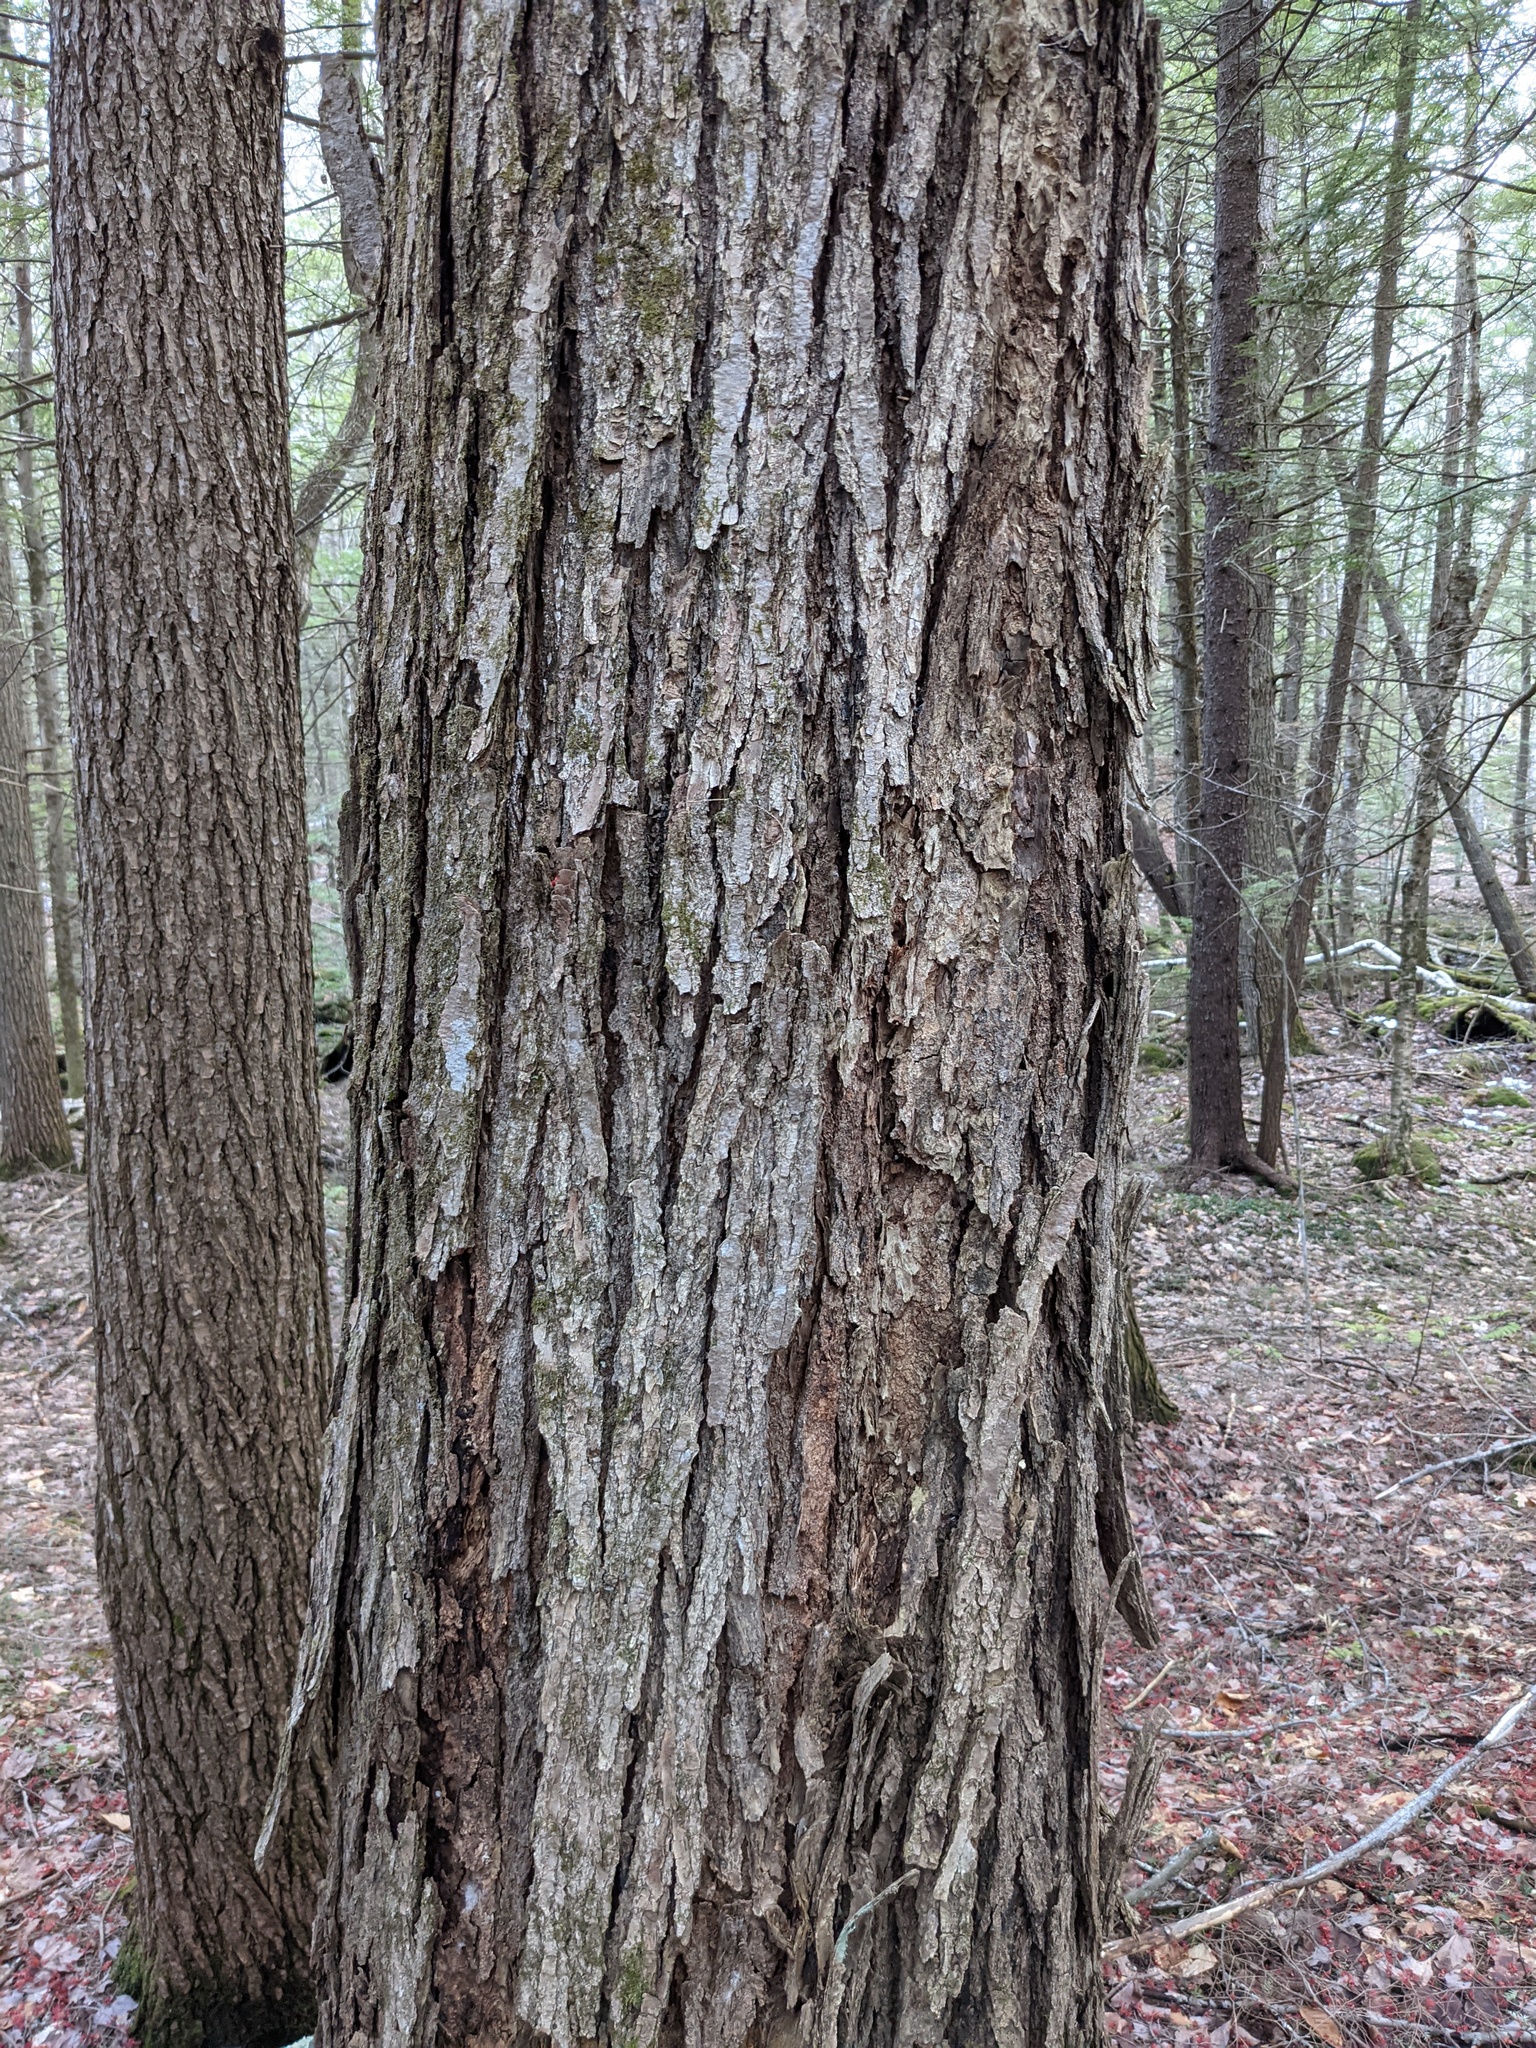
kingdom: Plantae
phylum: Tracheophyta
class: Magnoliopsida
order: Sapindales
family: Sapindaceae
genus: Acer
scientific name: Acer rubrum
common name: Red maple
